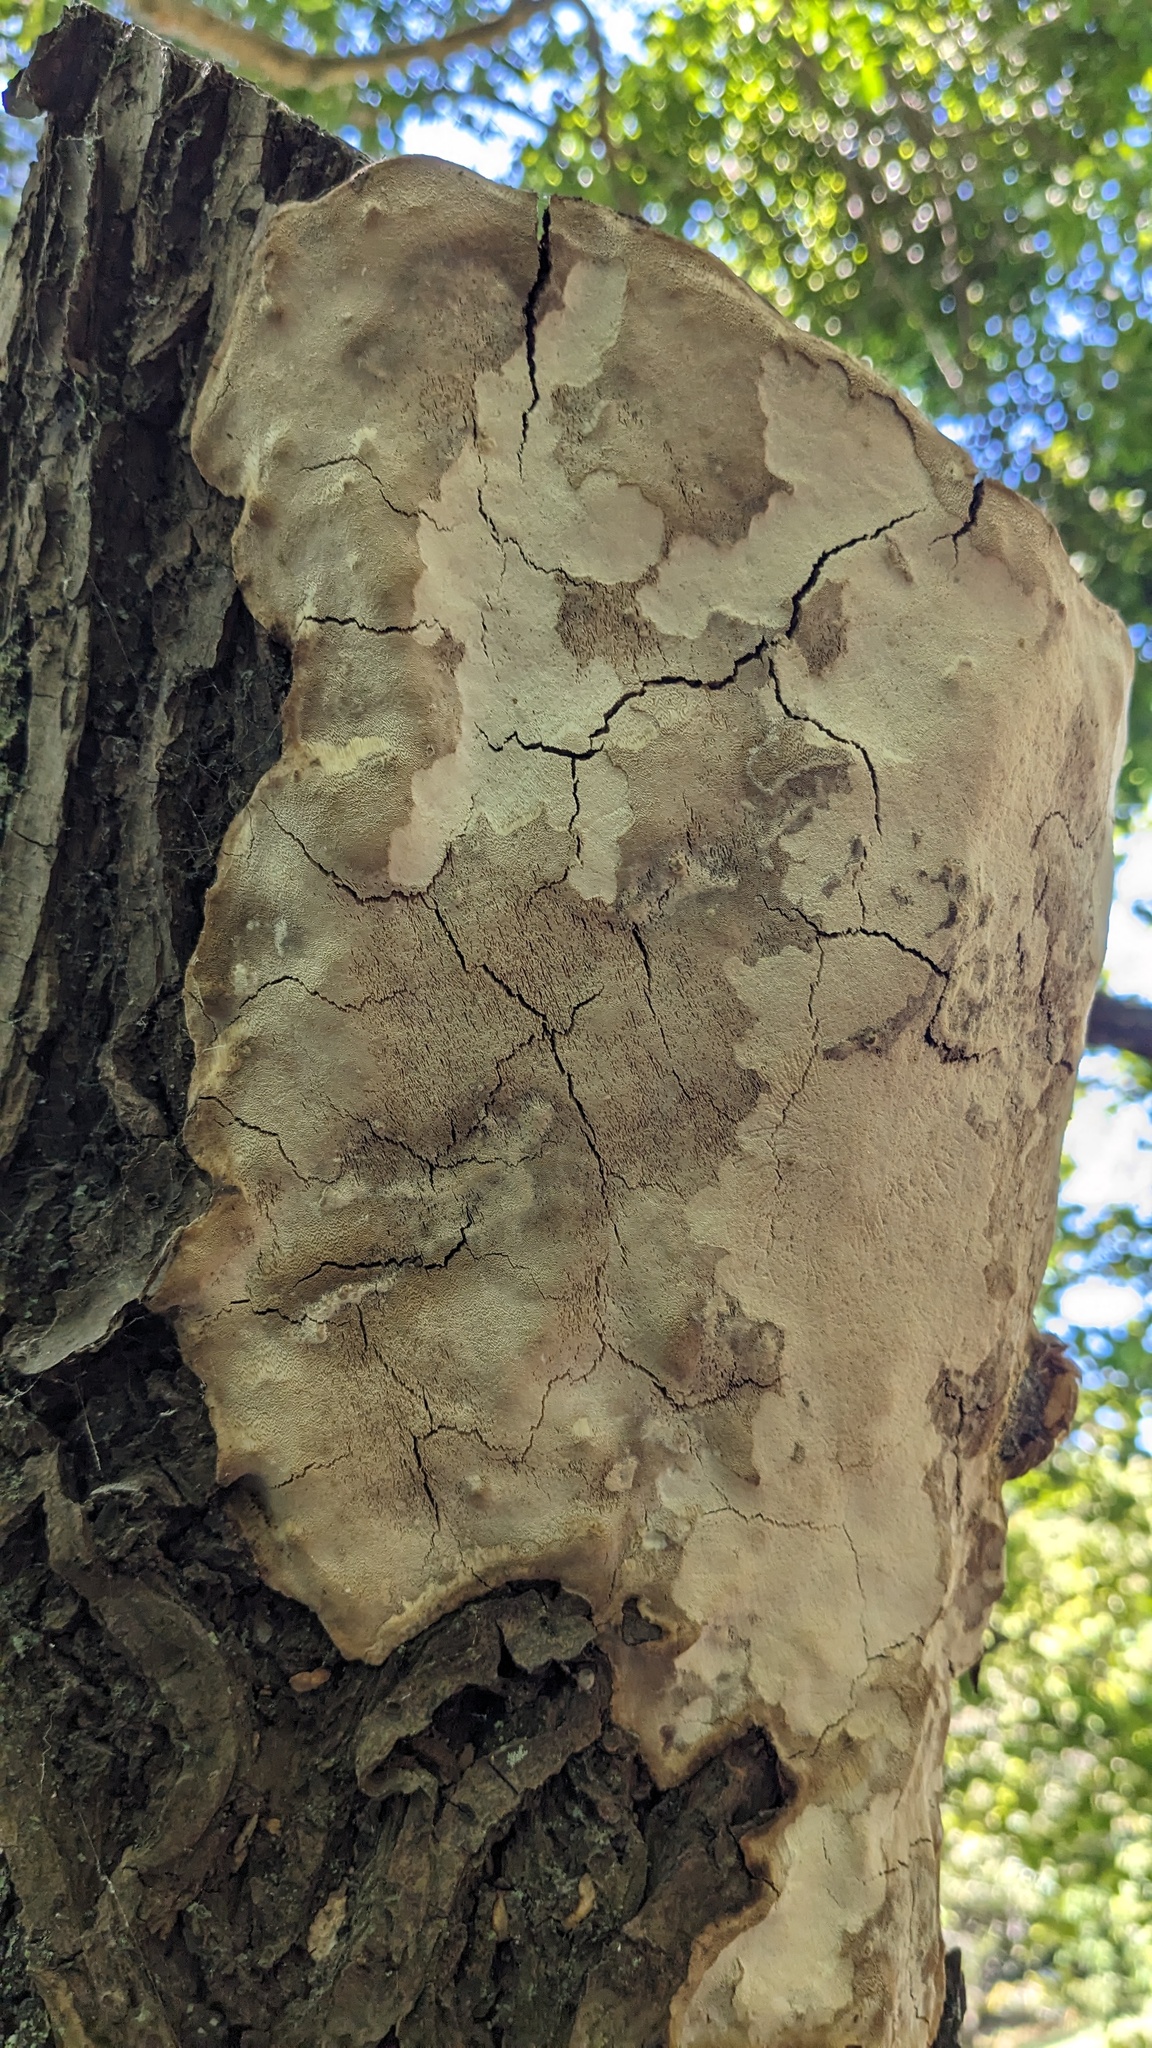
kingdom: Fungi
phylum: Basidiomycota
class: Agaricomycetes
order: Polyporales
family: Polyporaceae
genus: Truncospora
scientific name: Truncospora tephropora
